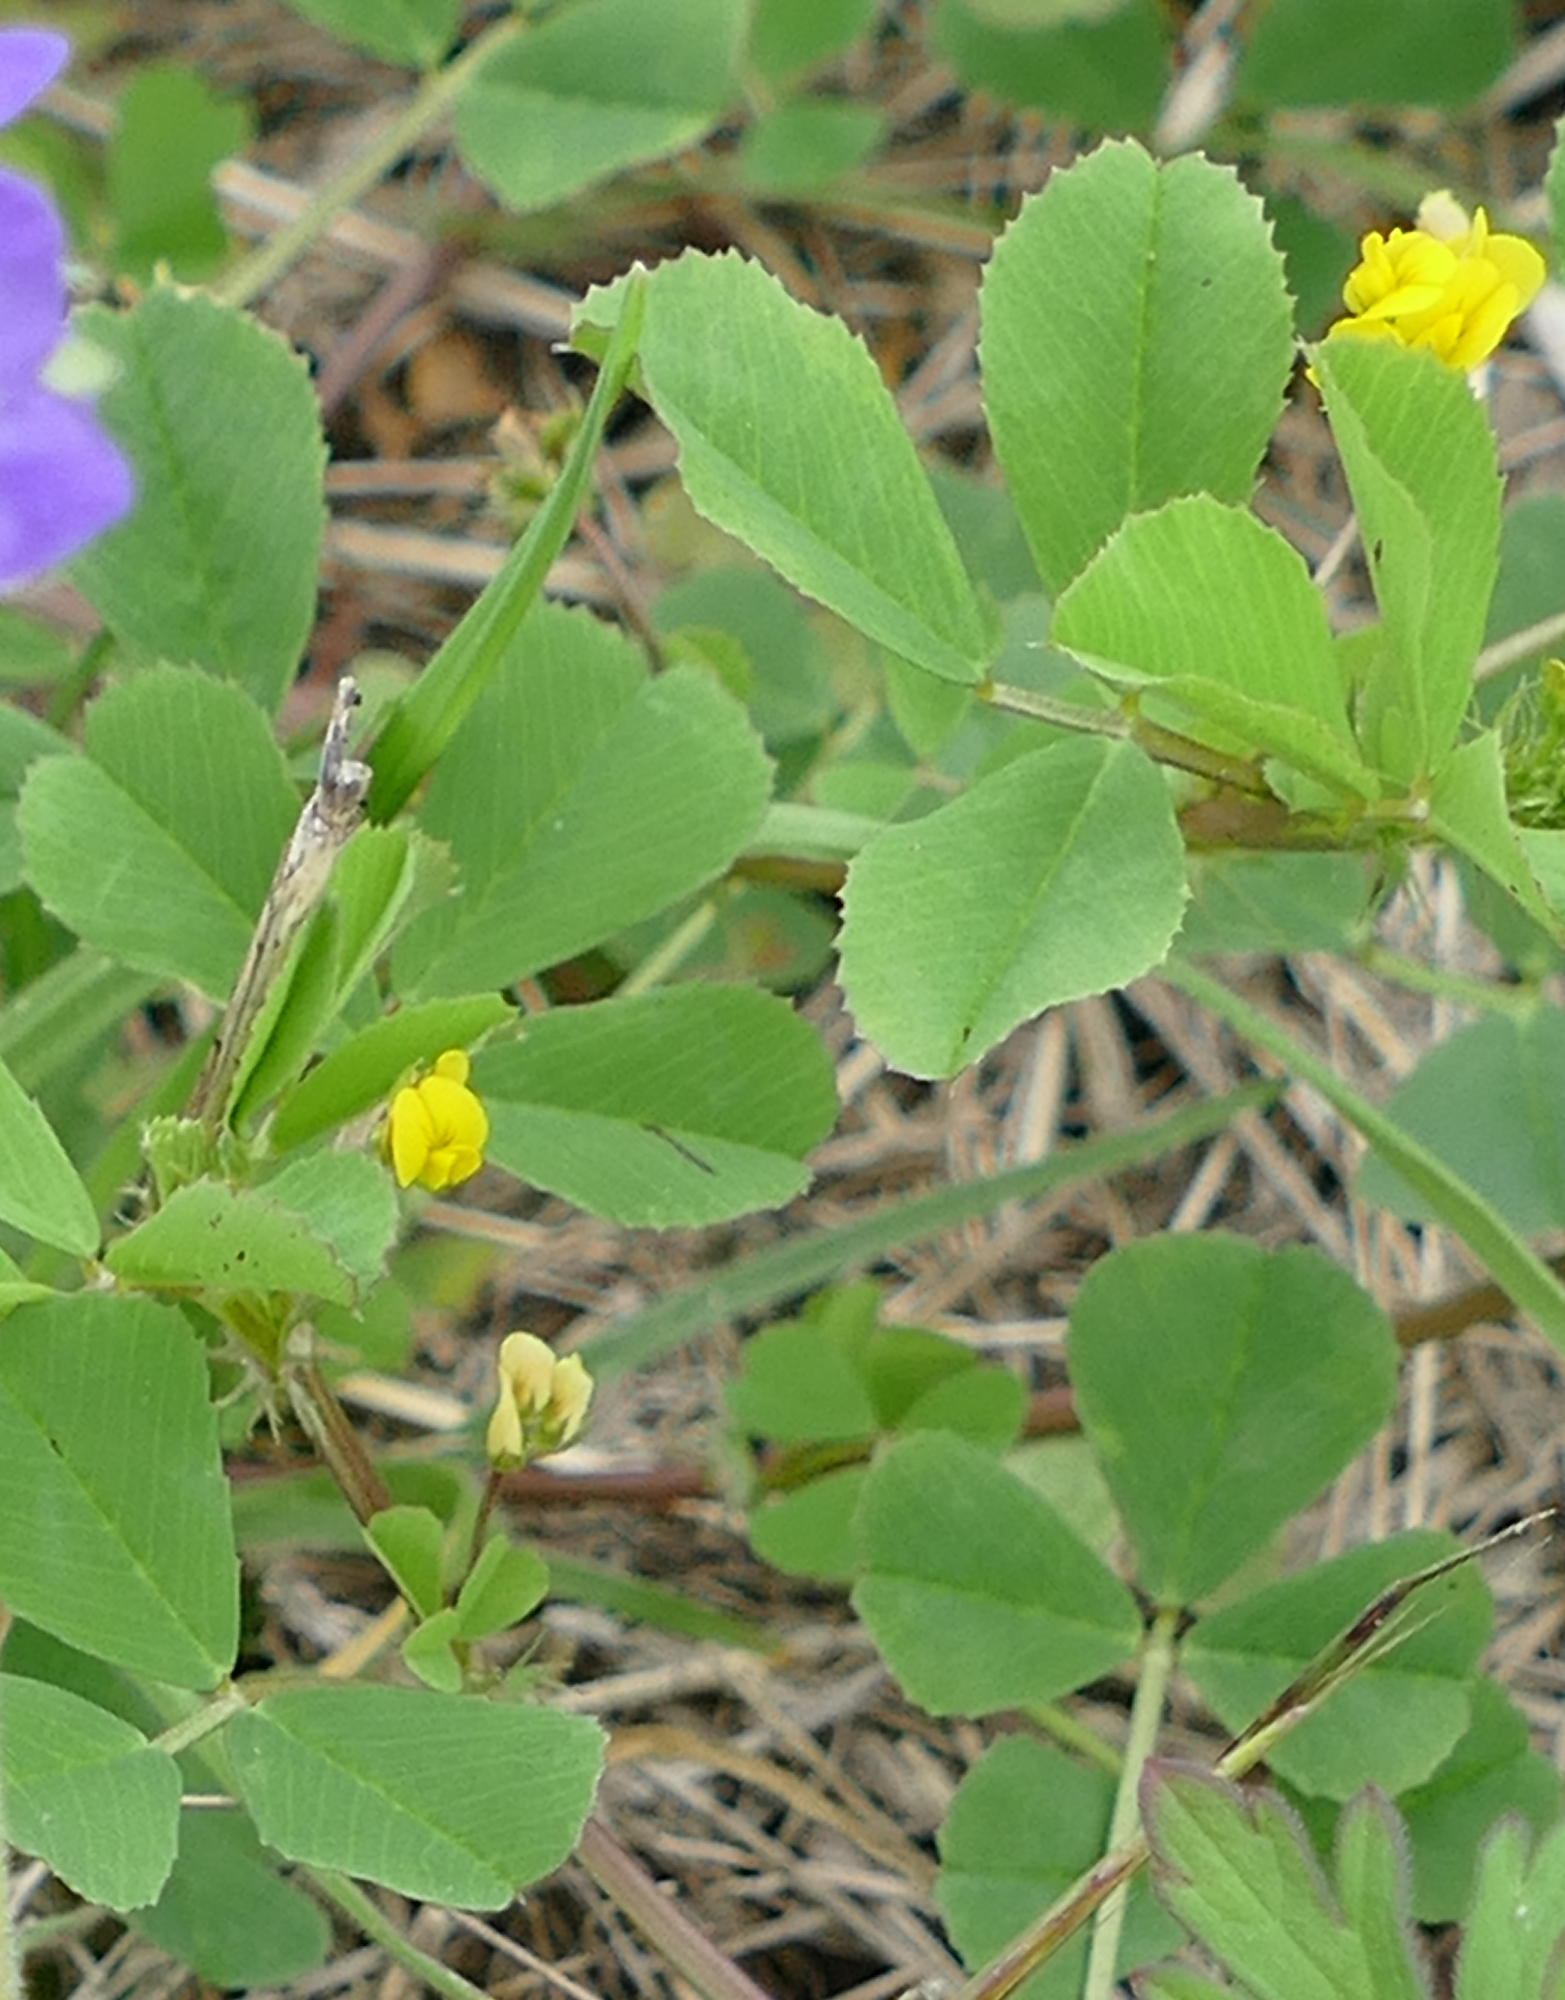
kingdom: Plantae
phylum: Tracheophyta
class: Magnoliopsida
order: Fabales
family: Fabaceae
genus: Medicago
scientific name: Medicago polymorpha
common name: Burclover
